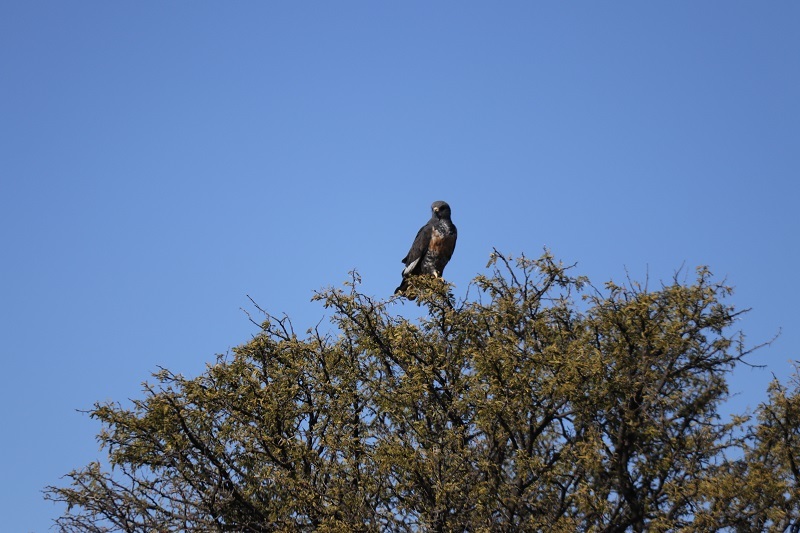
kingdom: Animalia
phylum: Chordata
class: Aves
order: Accipitriformes
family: Accipitridae
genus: Buteo
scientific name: Buteo rufofuscus
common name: Jackal buzzard
